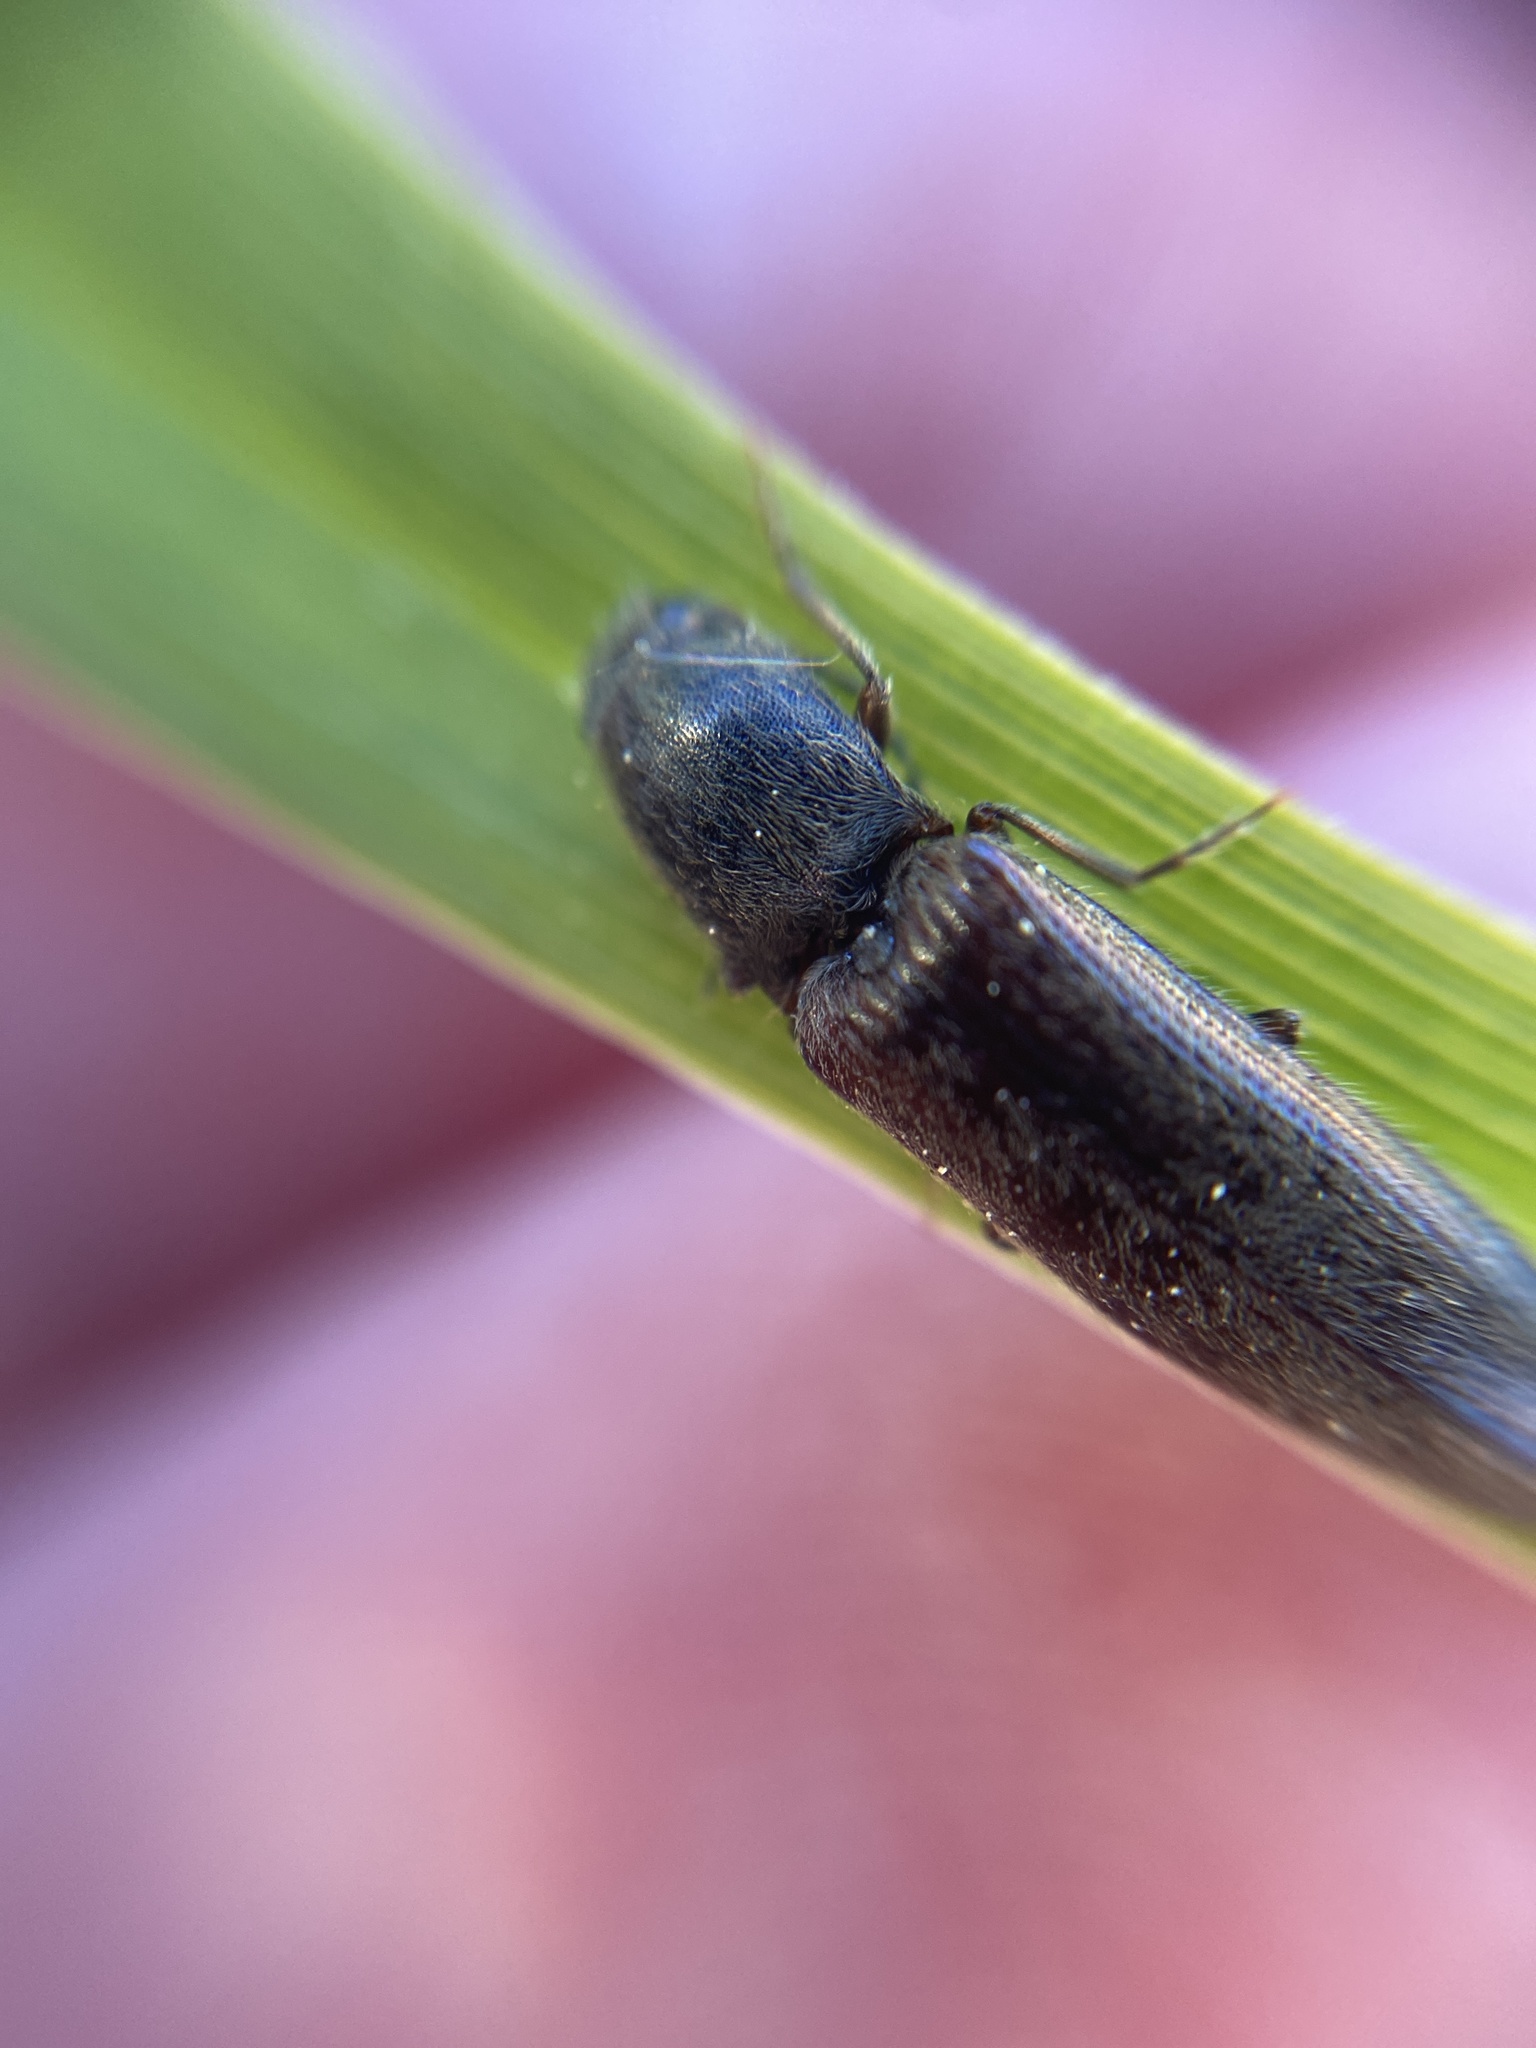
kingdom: Animalia
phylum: Arthropoda
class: Insecta
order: Coleoptera
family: Elateridae
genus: Athous
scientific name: Athous haemorrhoidalis
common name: Red-brown click beetle
